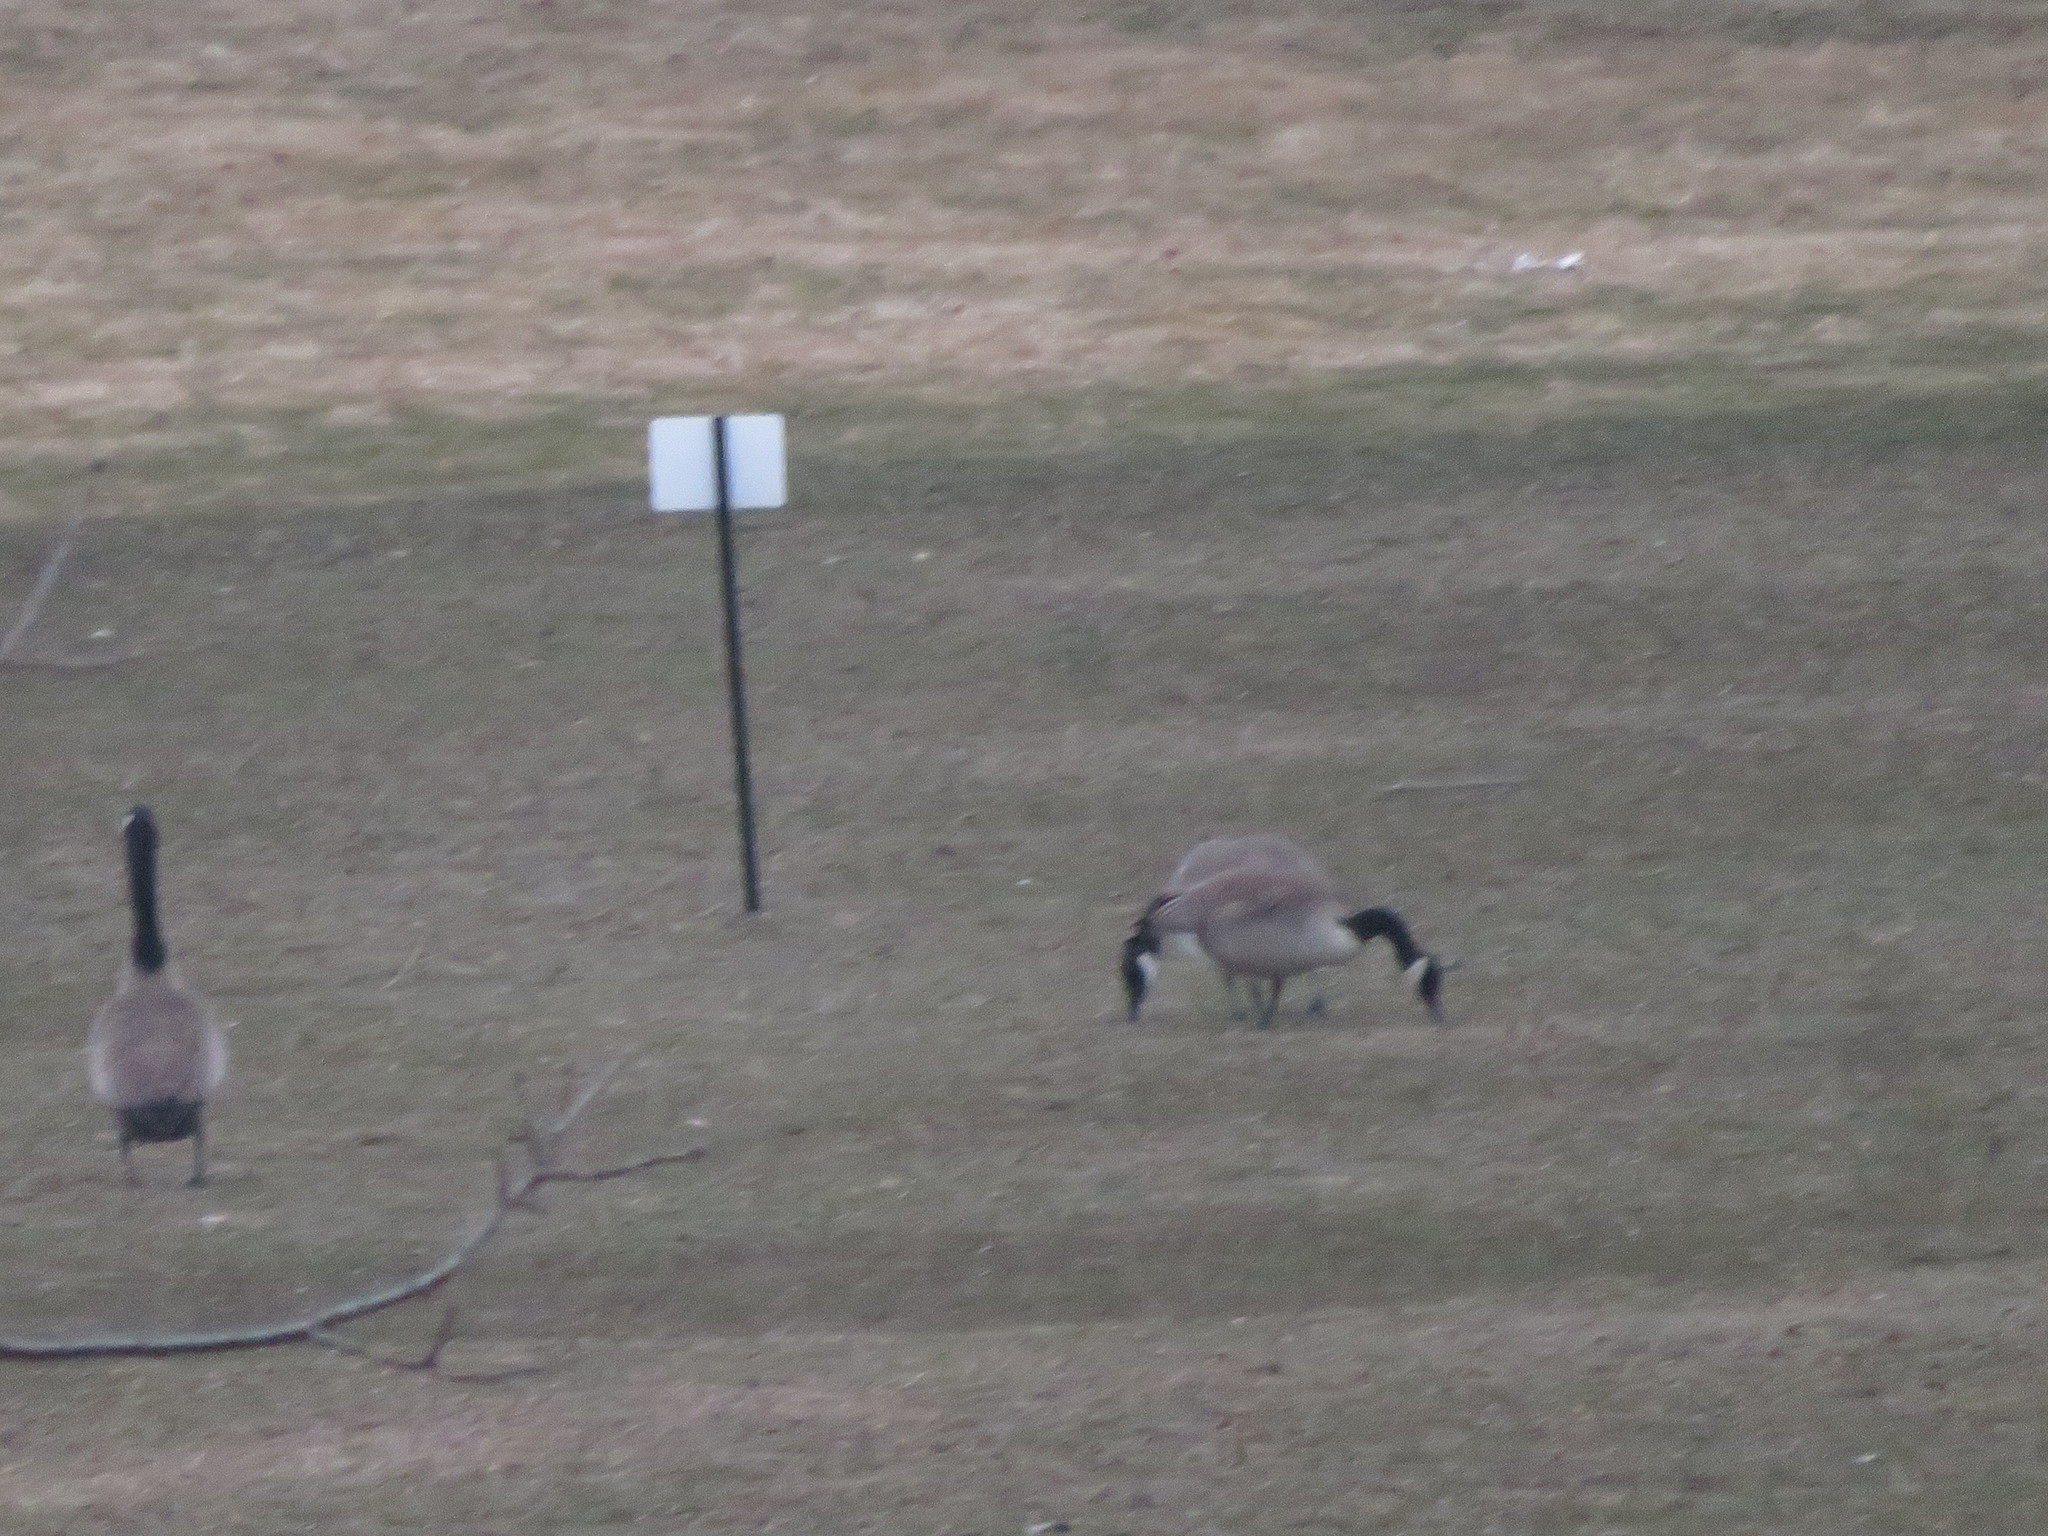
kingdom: Animalia
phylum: Chordata
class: Aves
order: Anseriformes
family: Anatidae
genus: Branta
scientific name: Branta canadensis
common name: Canada goose
